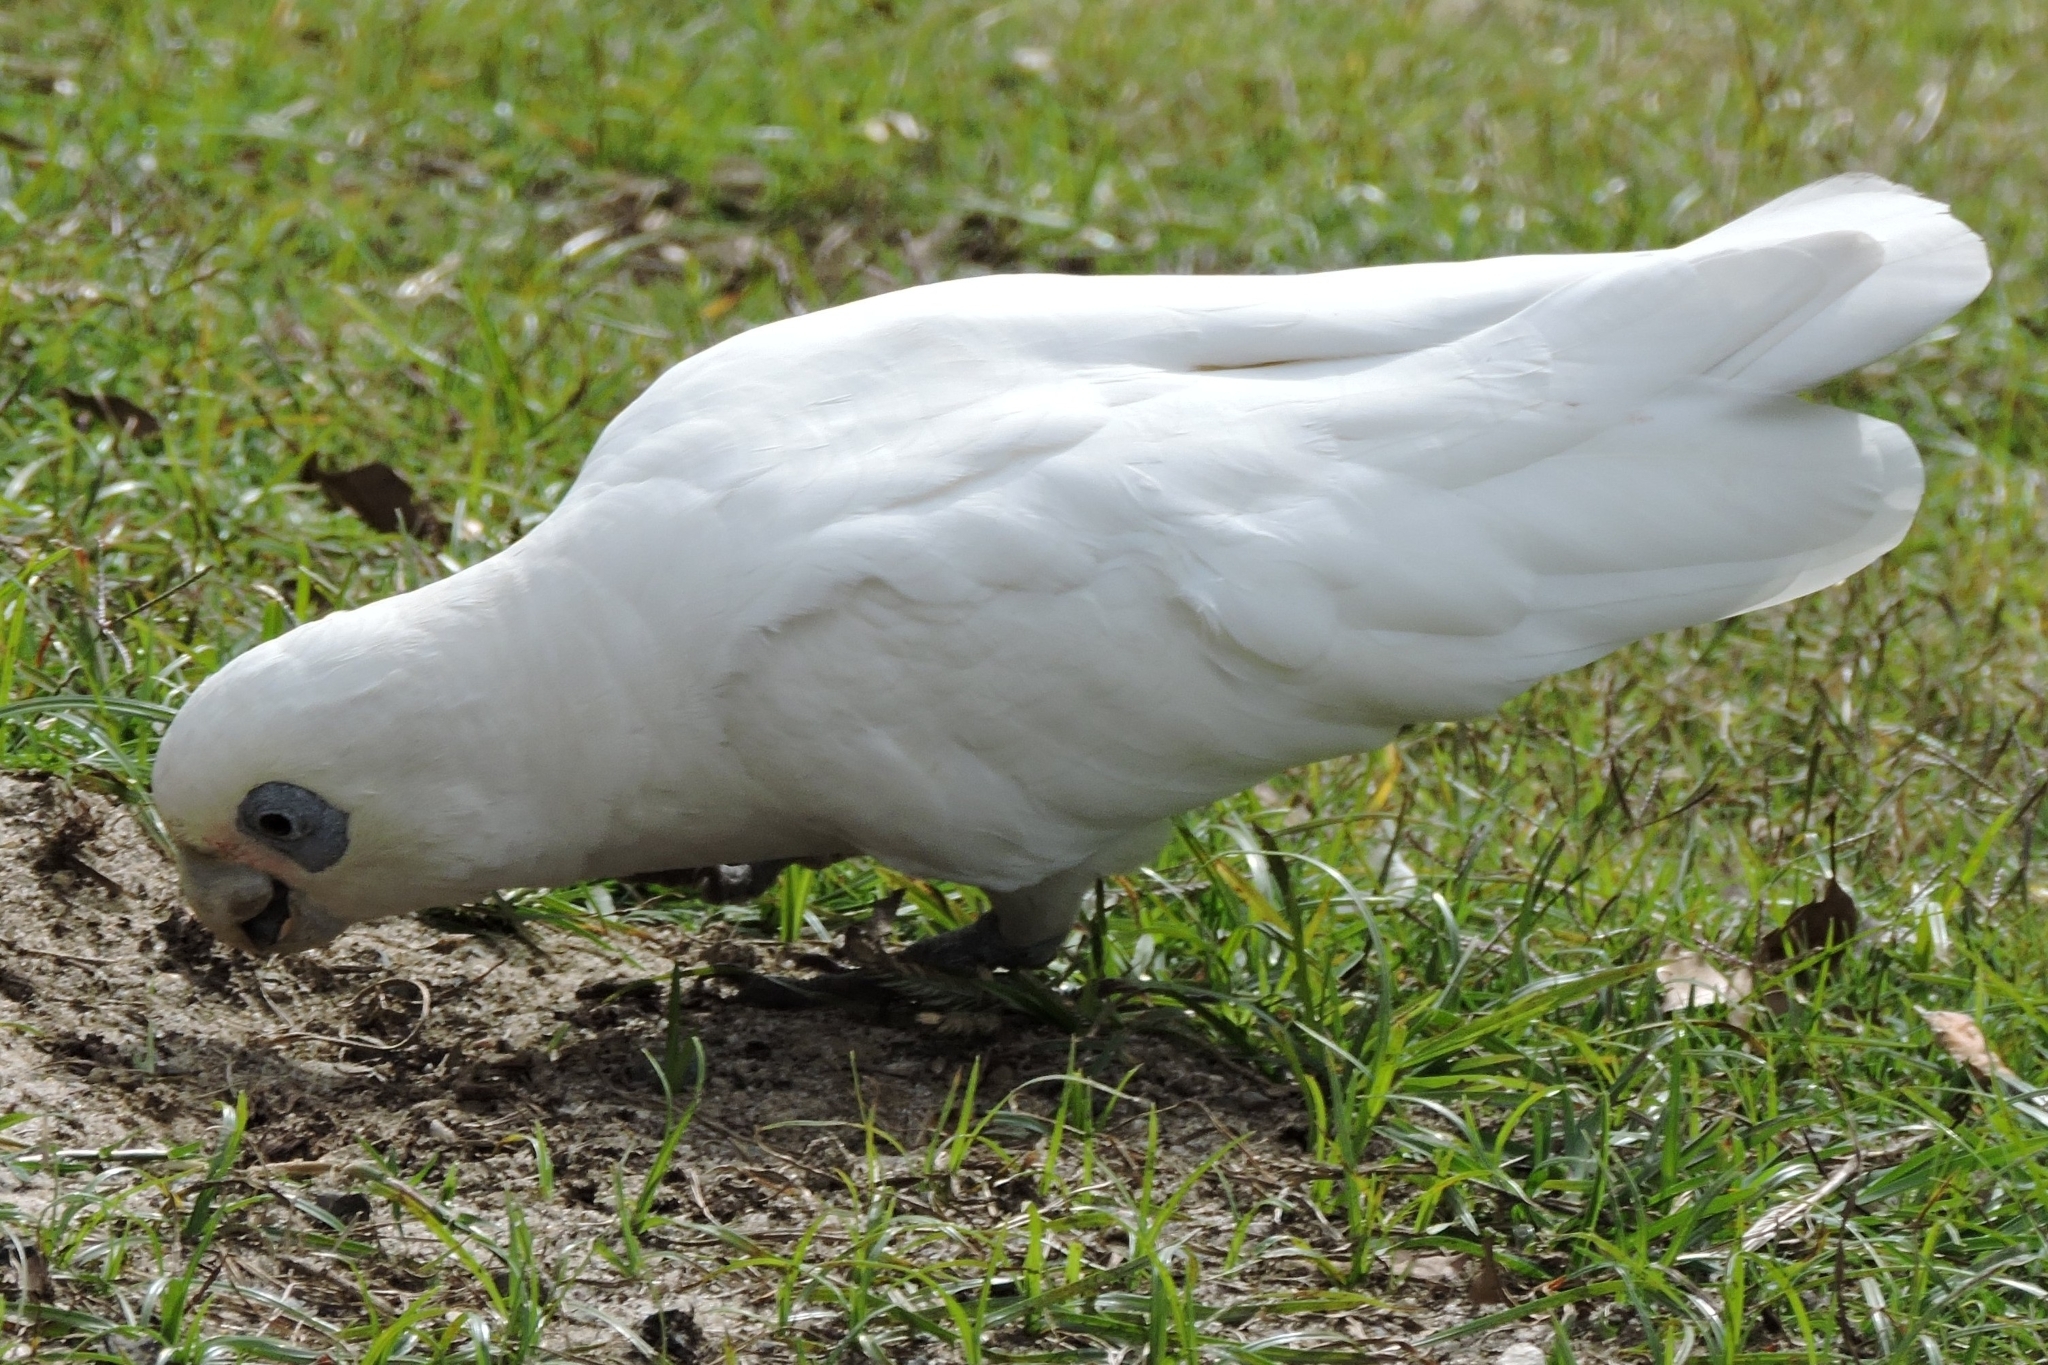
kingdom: Animalia
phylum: Chordata
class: Aves
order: Psittaciformes
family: Psittacidae
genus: Cacatua
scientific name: Cacatua sanguinea
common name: Little corella
